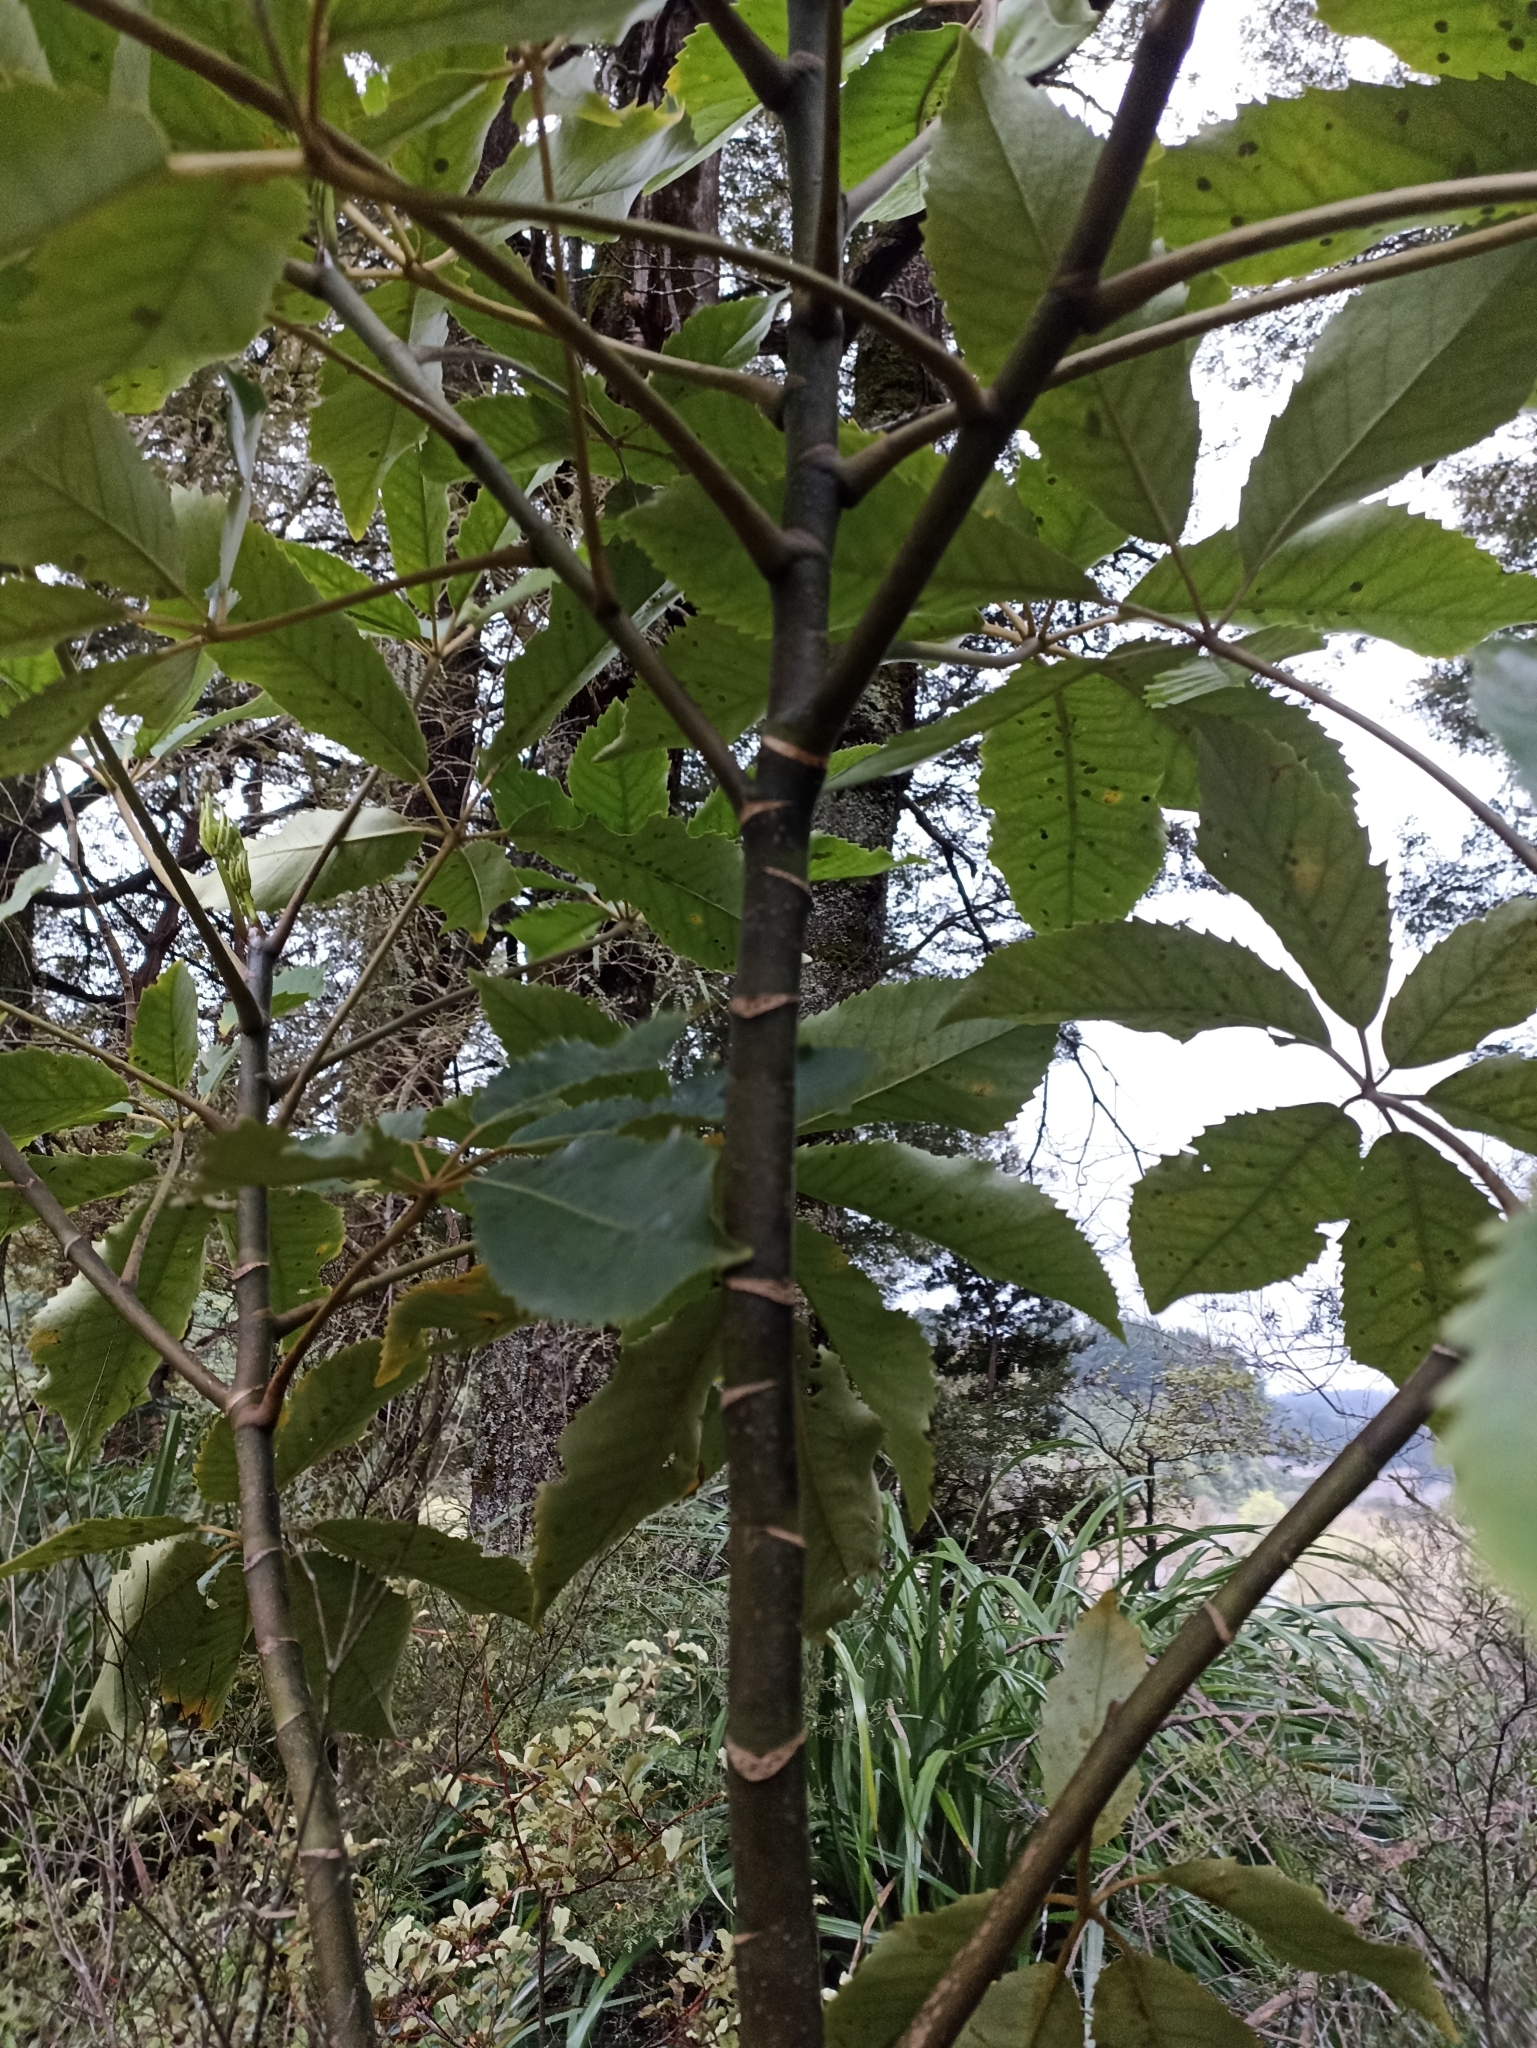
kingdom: Plantae
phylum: Tracheophyta
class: Magnoliopsida
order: Apiales
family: Araliaceae
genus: Neopanax
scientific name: Neopanax arboreus
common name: Five-fingers
